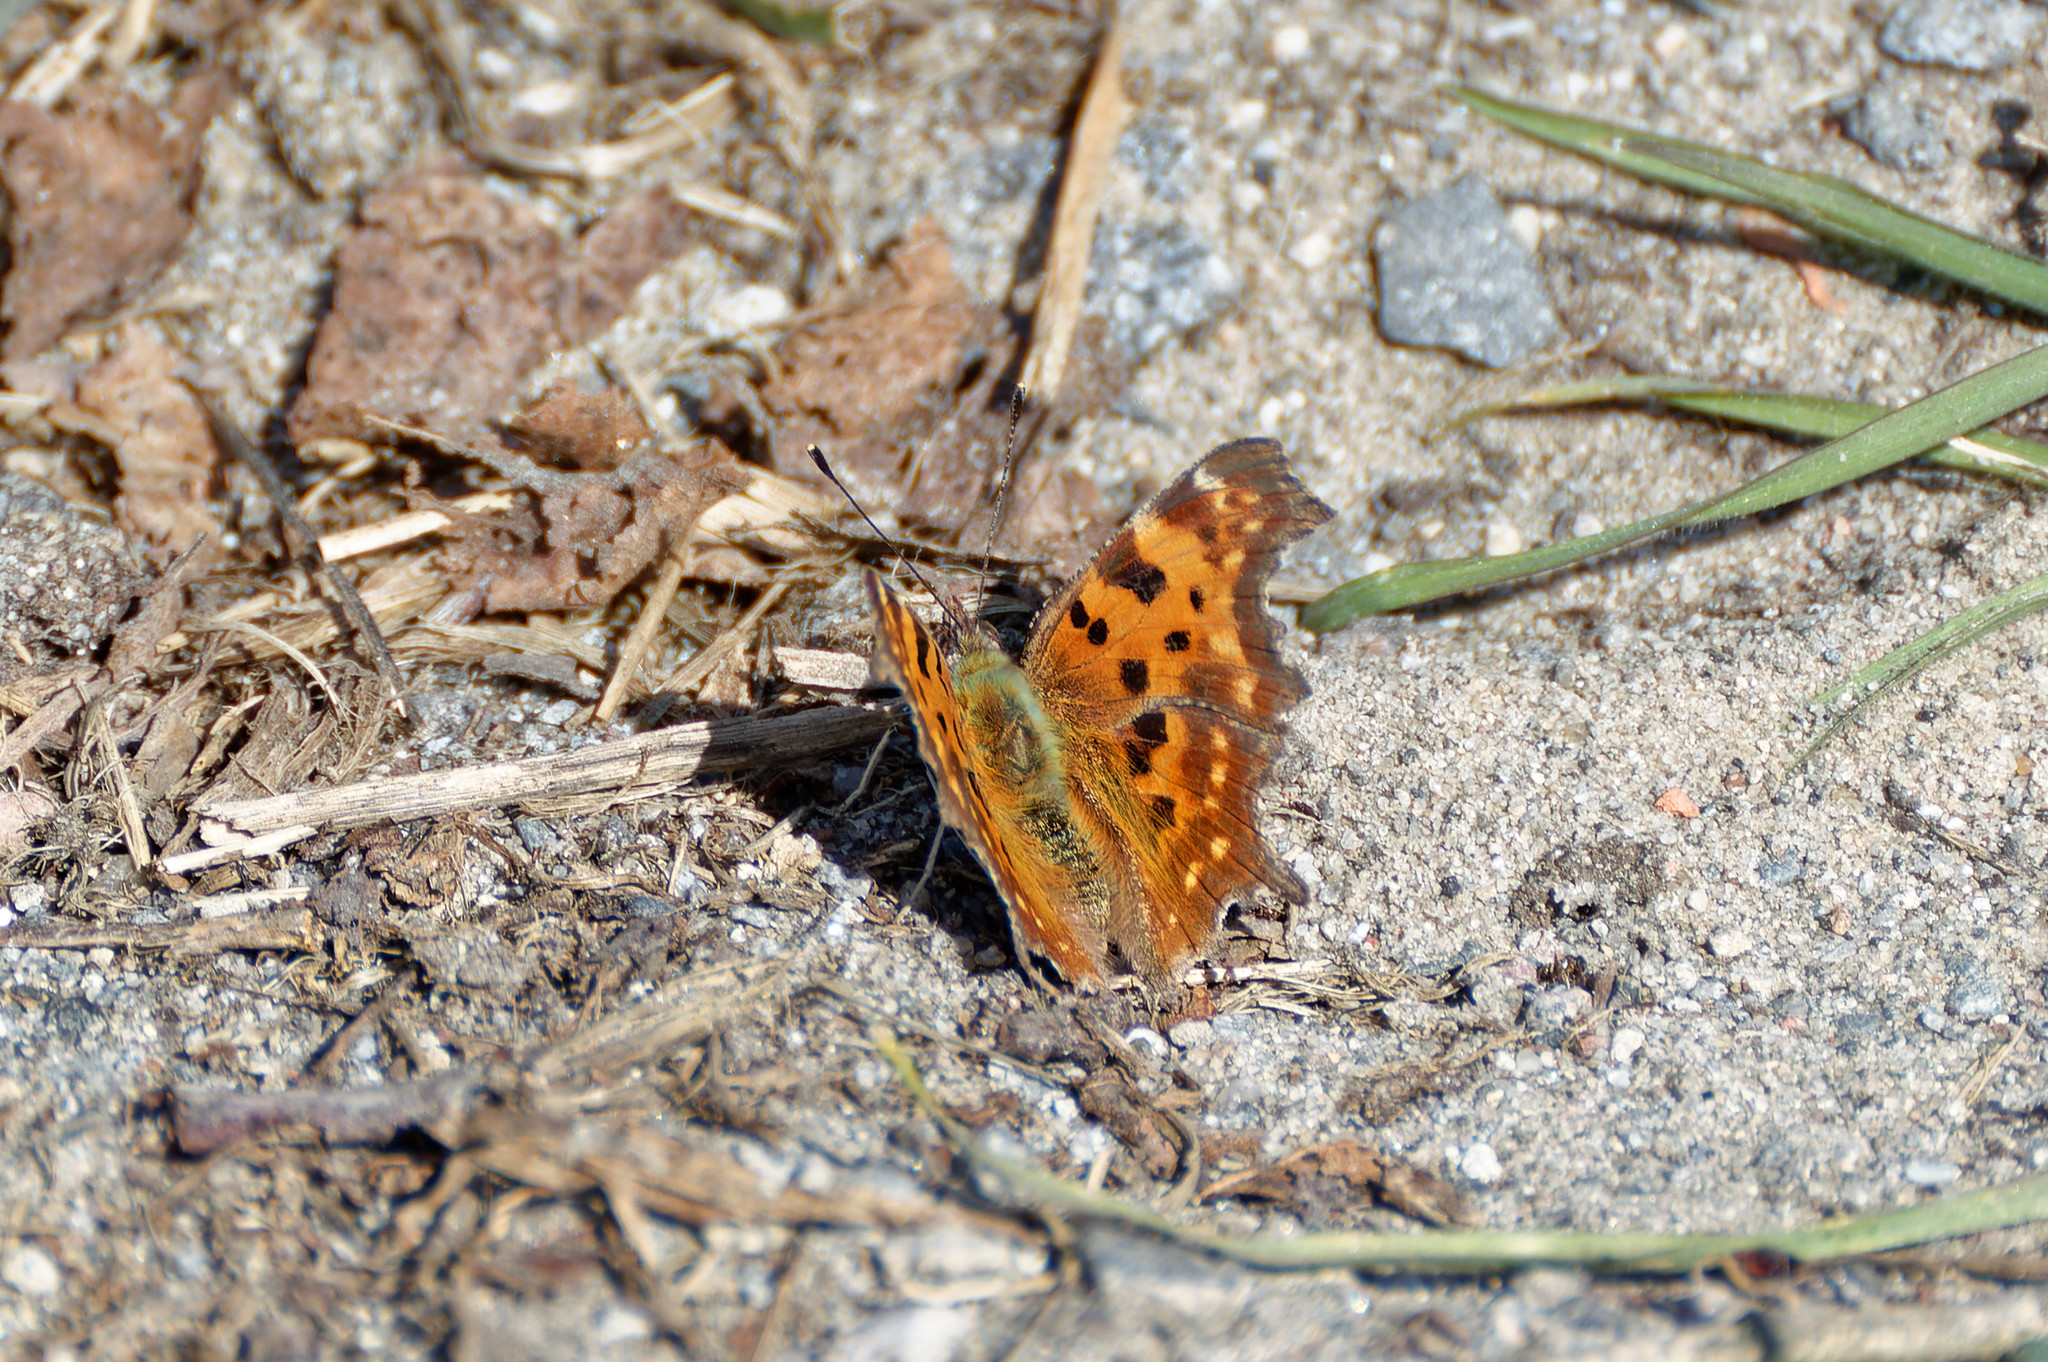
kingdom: Animalia
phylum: Arthropoda
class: Insecta
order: Lepidoptera
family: Nymphalidae
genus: Polygonia
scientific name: Polygonia c-album
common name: Comma
